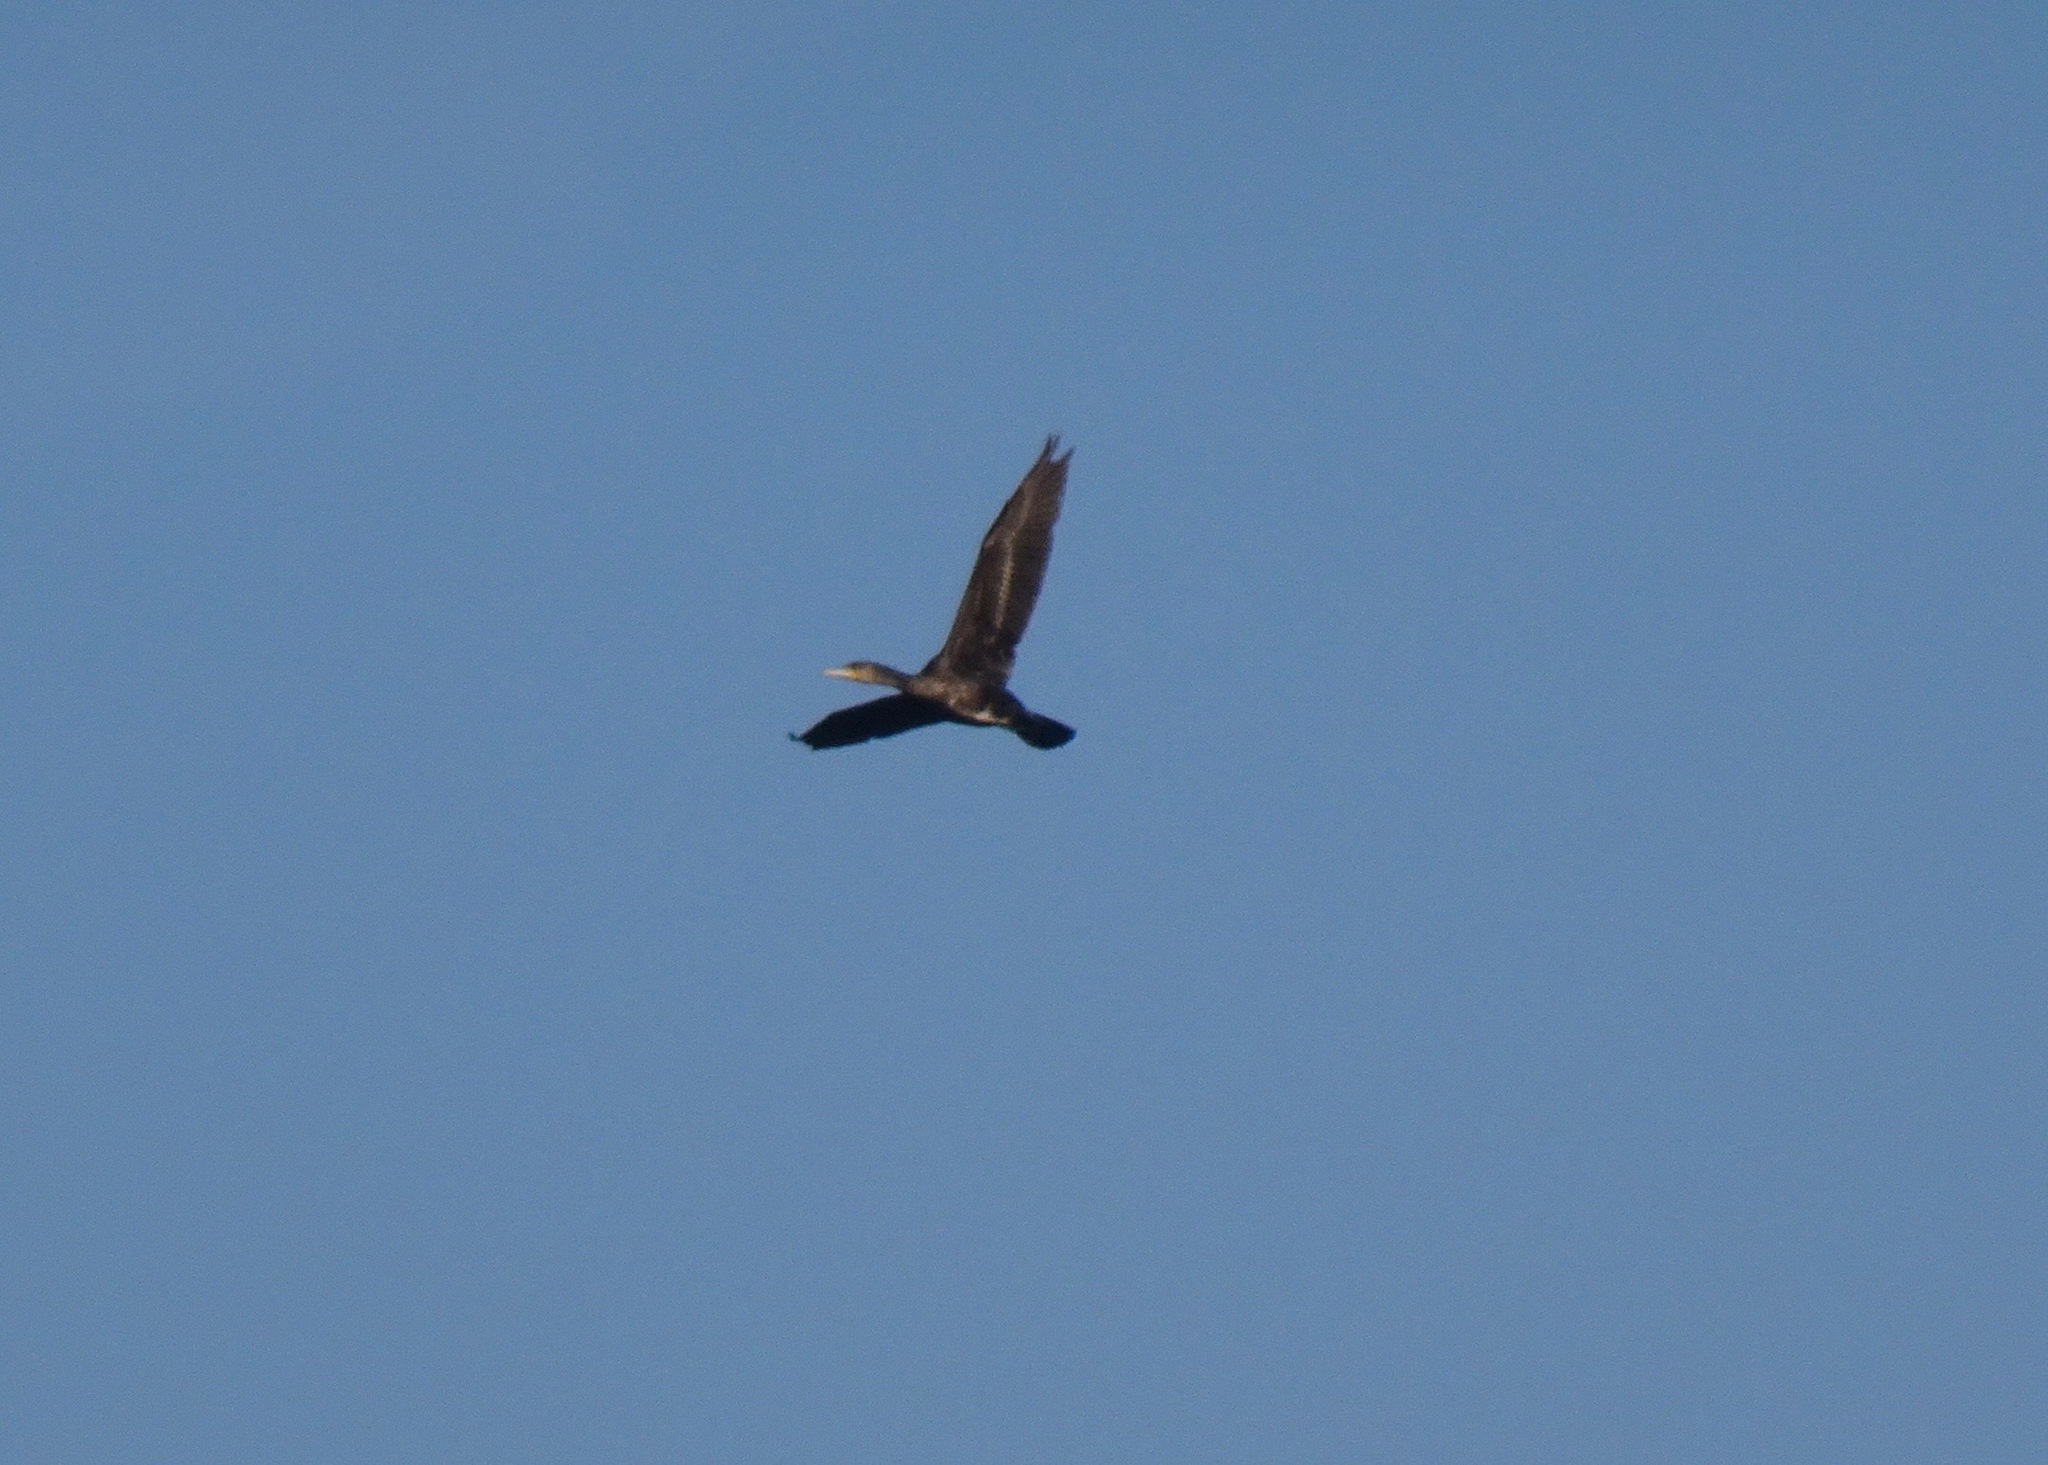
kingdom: Animalia
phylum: Chordata
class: Aves
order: Suliformes
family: Phalacrocoracidae
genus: Phalacrocorax
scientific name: Phalacrocorax carbo
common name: Great cormorant
